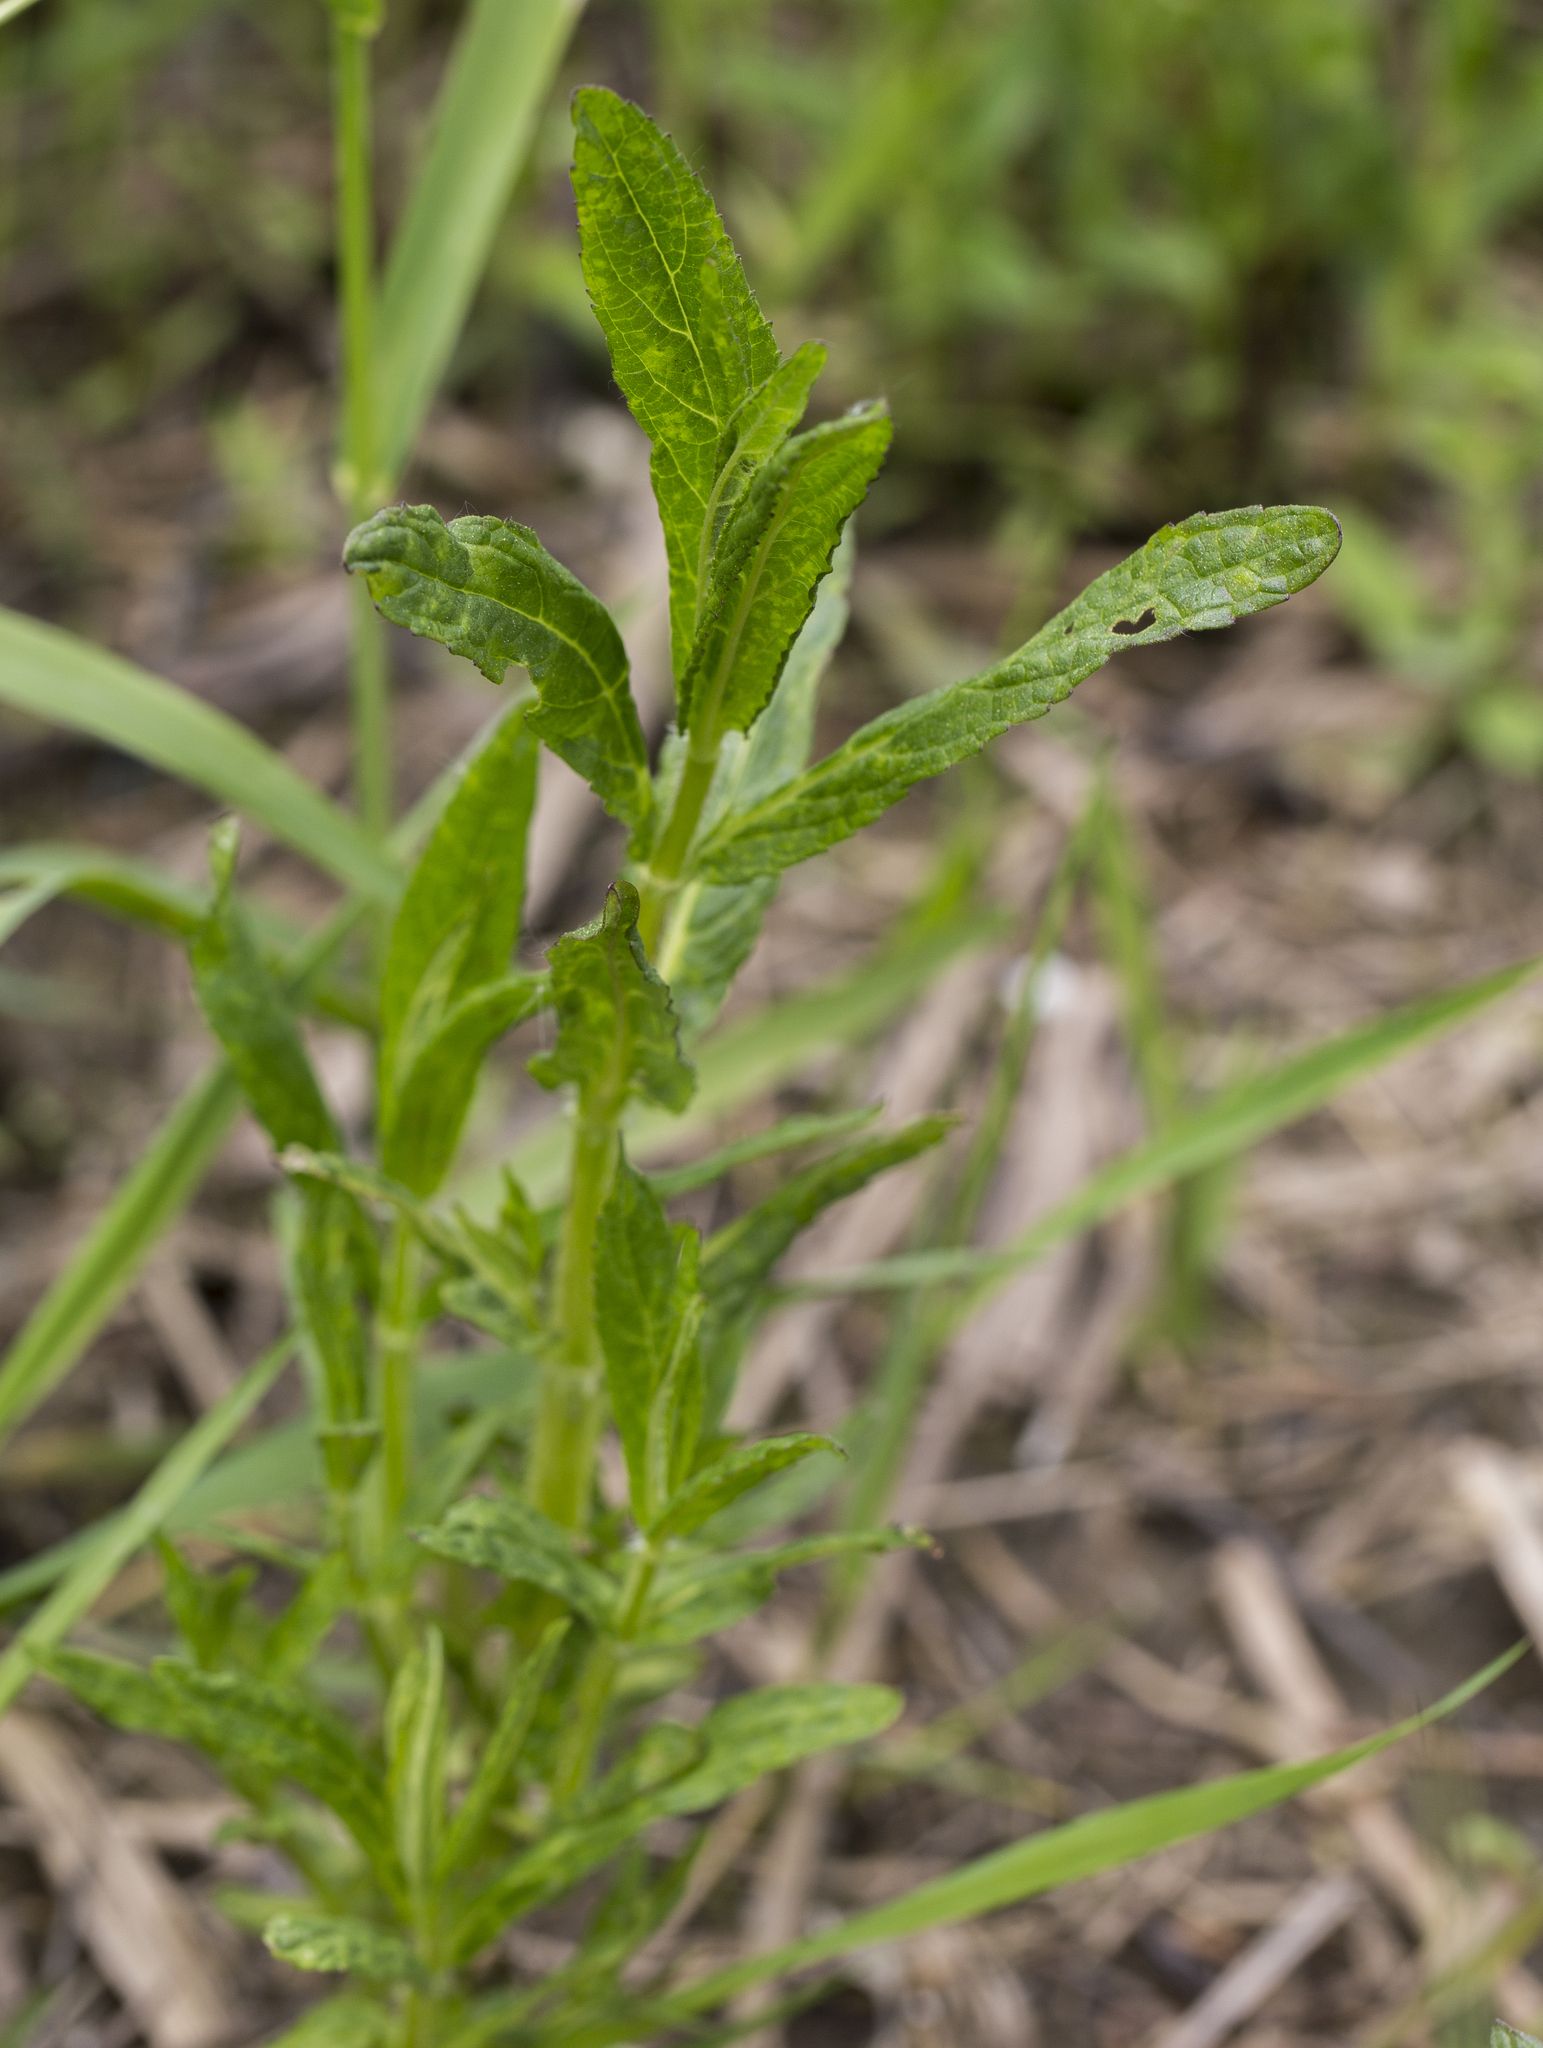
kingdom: Plantae
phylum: Tracheophyta
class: Magnoliopsida
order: Lamiales
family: Lamiaceae
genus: Stachys
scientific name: Stachys palustris
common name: Marsh woundwort
